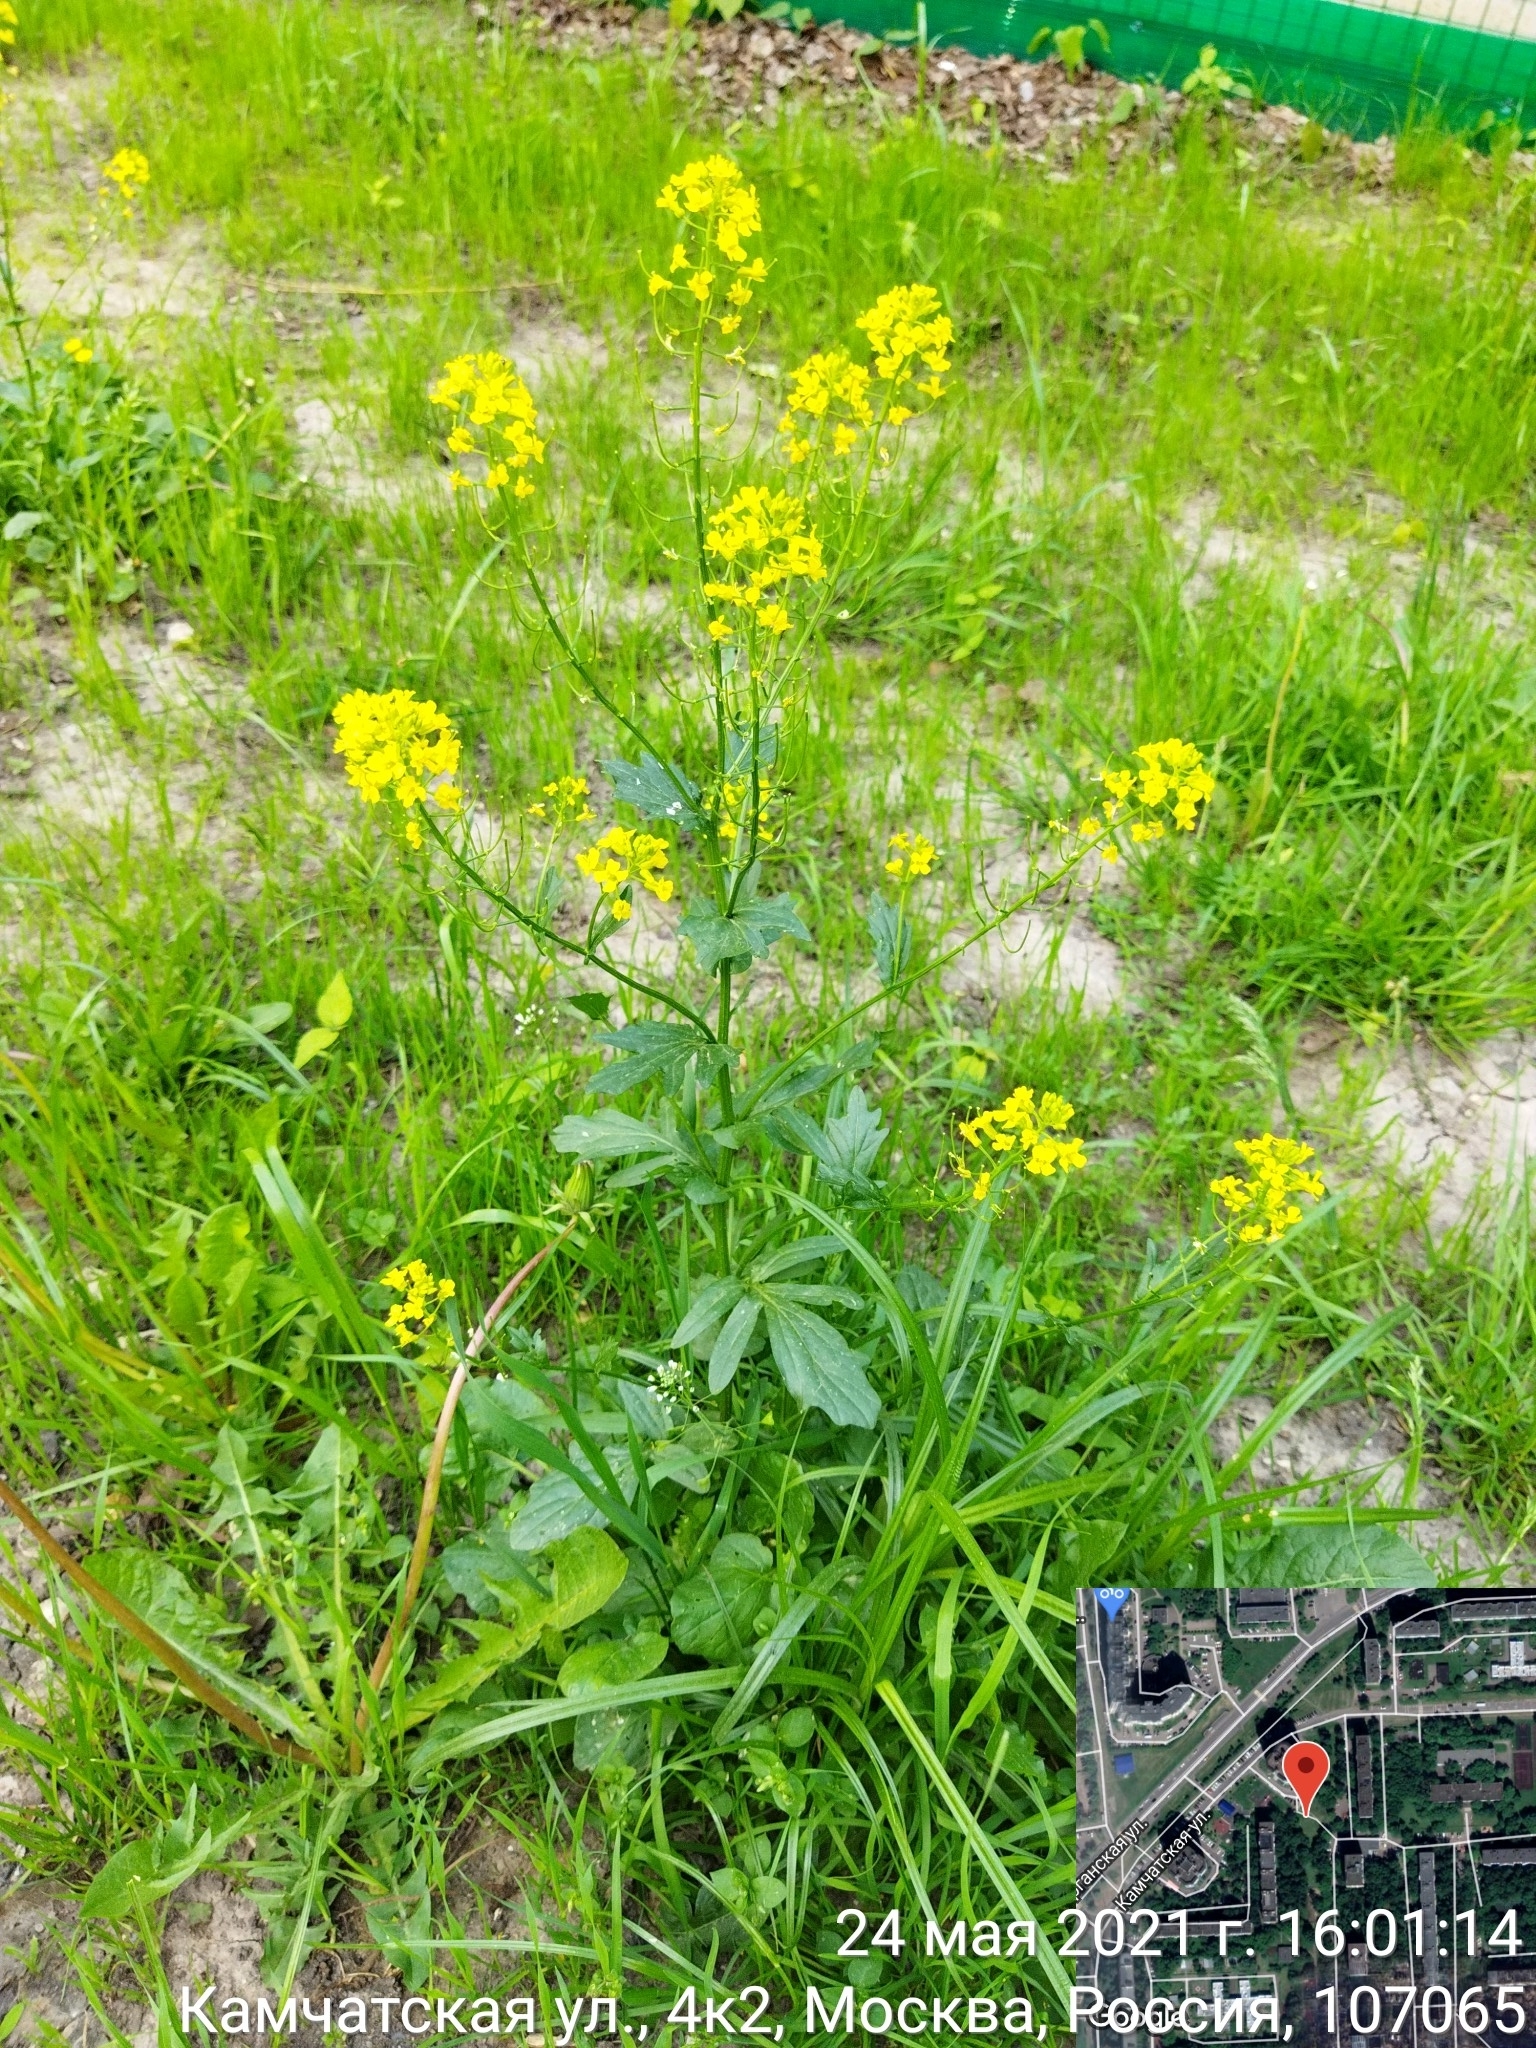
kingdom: Plantae
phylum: Tracheophyta
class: Magnoliopsida
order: Brassicales
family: Brassicaceae
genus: Barbarea
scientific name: Barbarea vulgaris
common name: Cressy-greens
